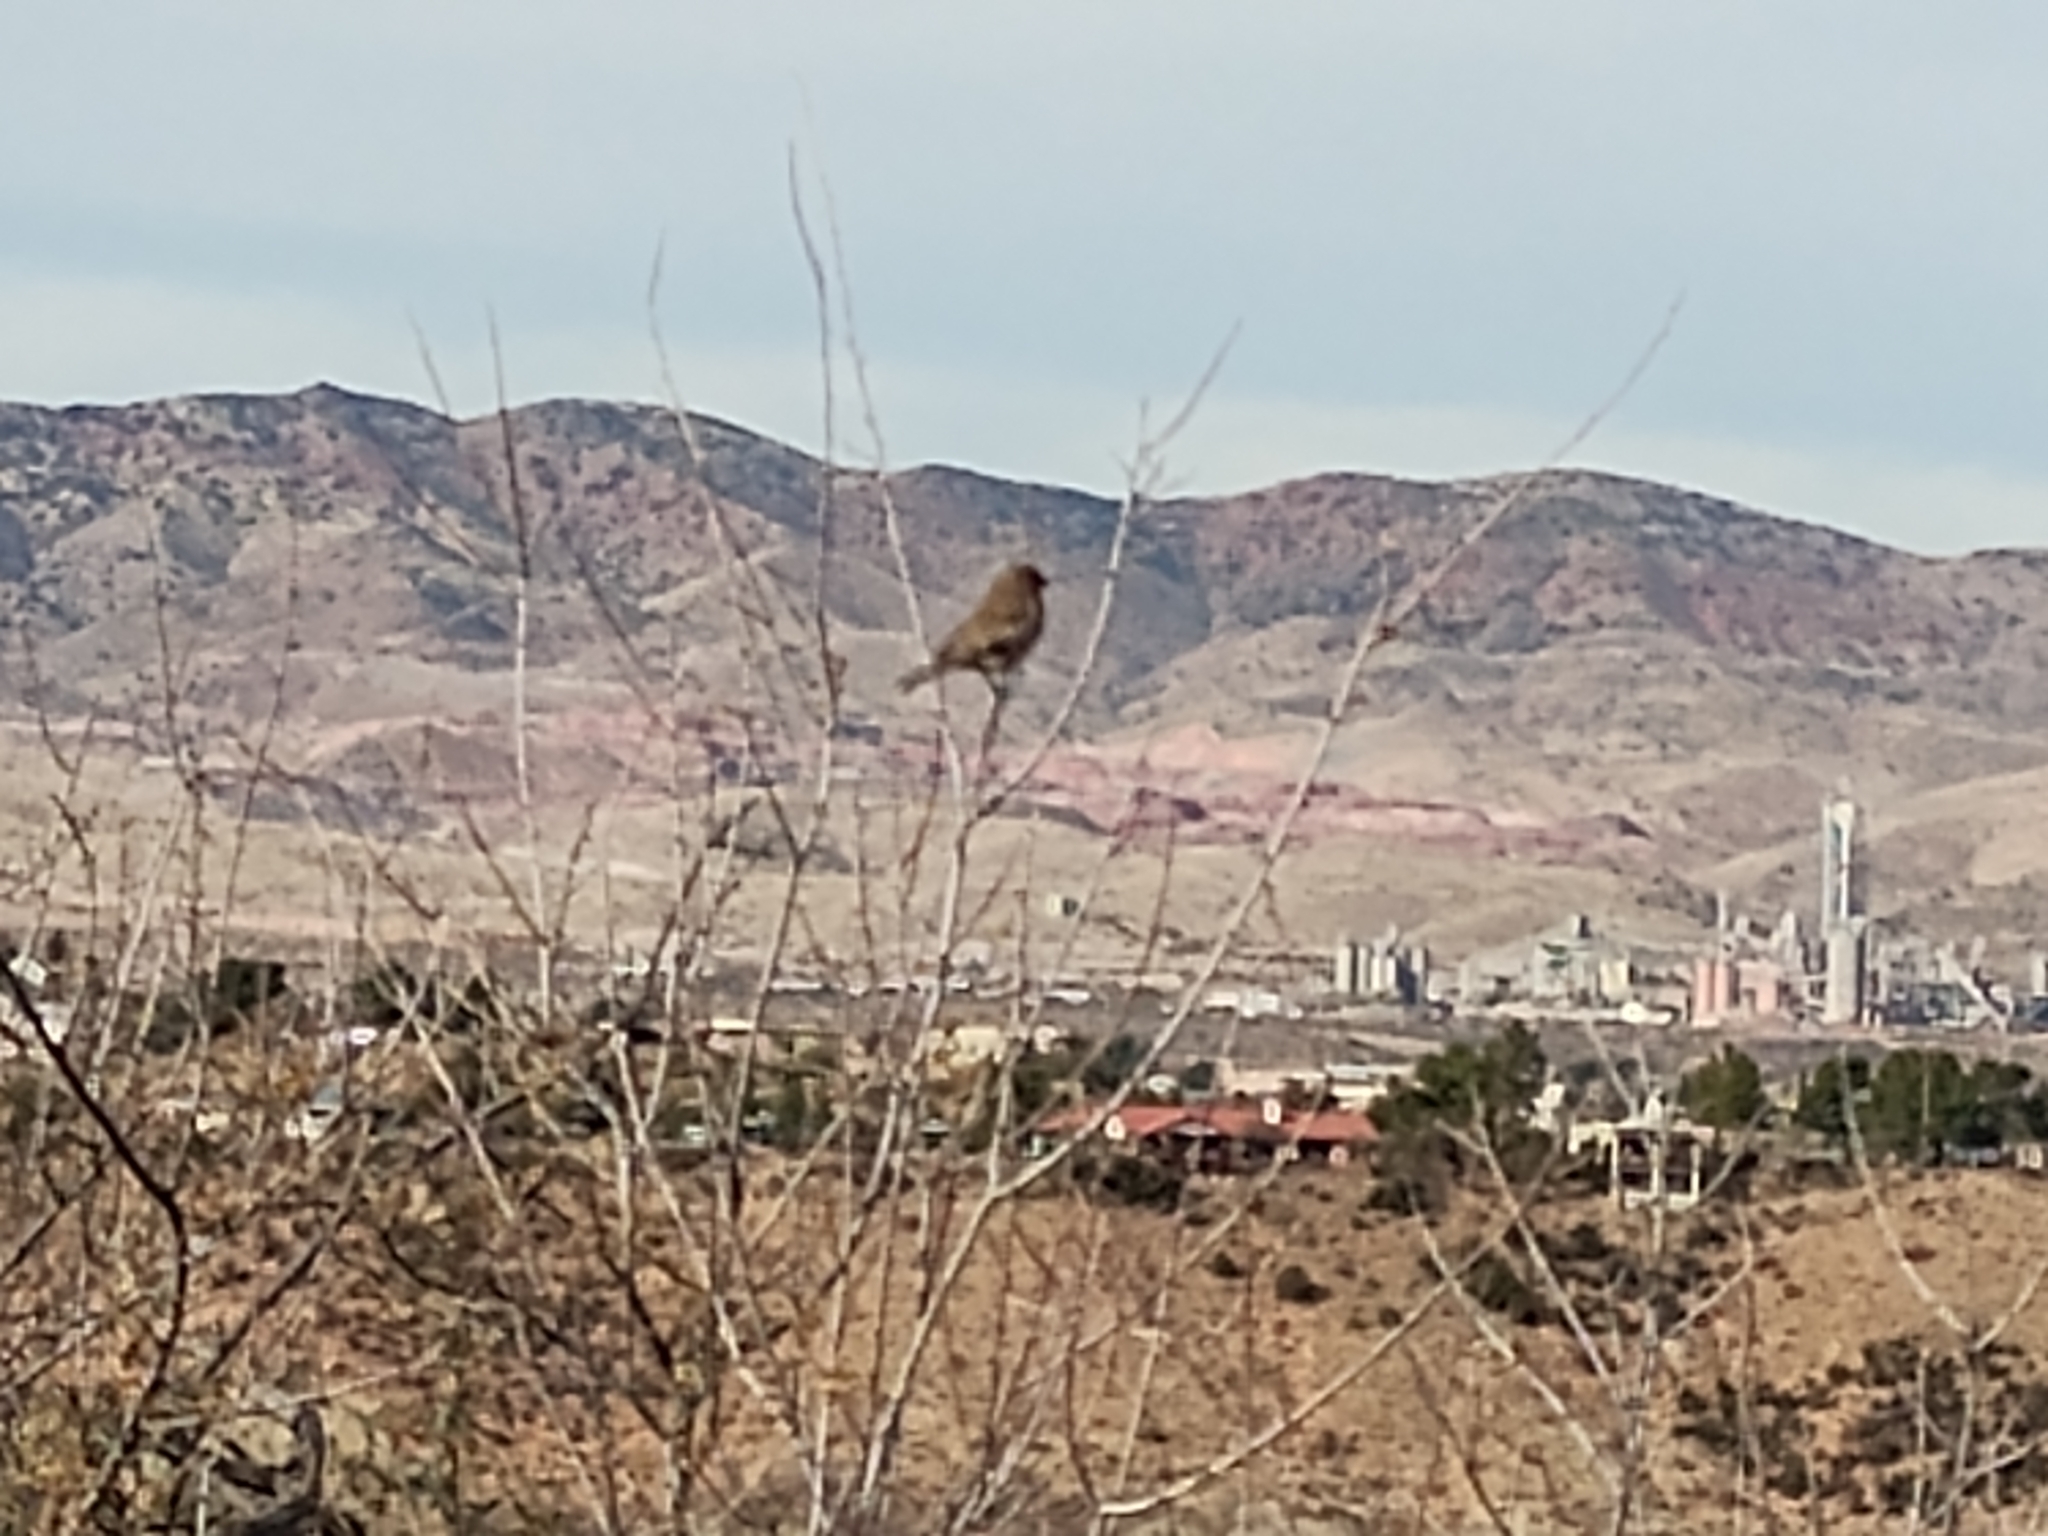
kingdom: Animalia
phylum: Chordata
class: Aves
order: Passeriformes
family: Fringillidae
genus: Haemorhous
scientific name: Haemorhous mexicanus
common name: House finch
